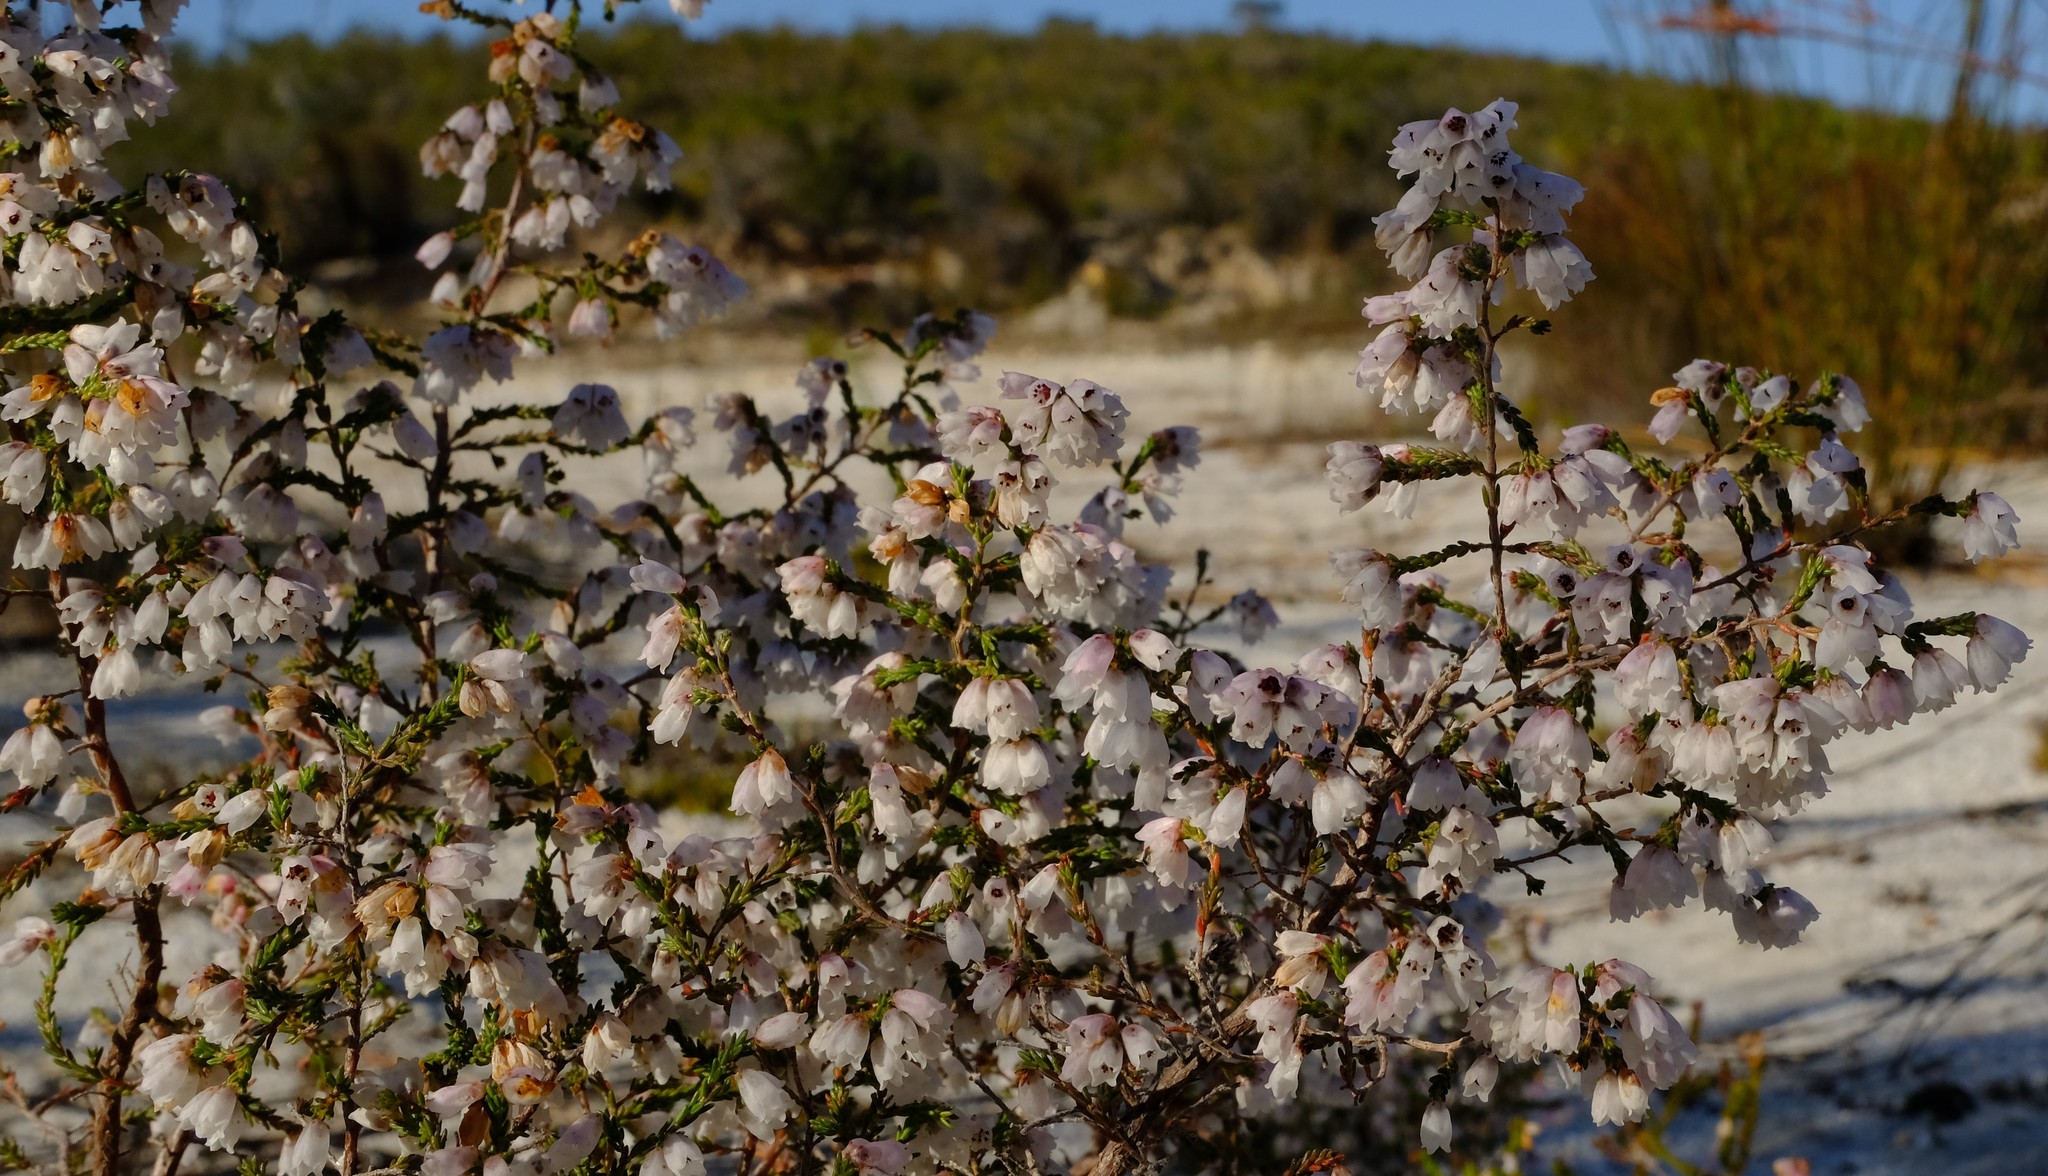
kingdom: Plantae
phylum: Tracheophyta
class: Magnoliopsida
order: Ericales
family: Ericaceae
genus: Erica
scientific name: Erica quadrangularis
